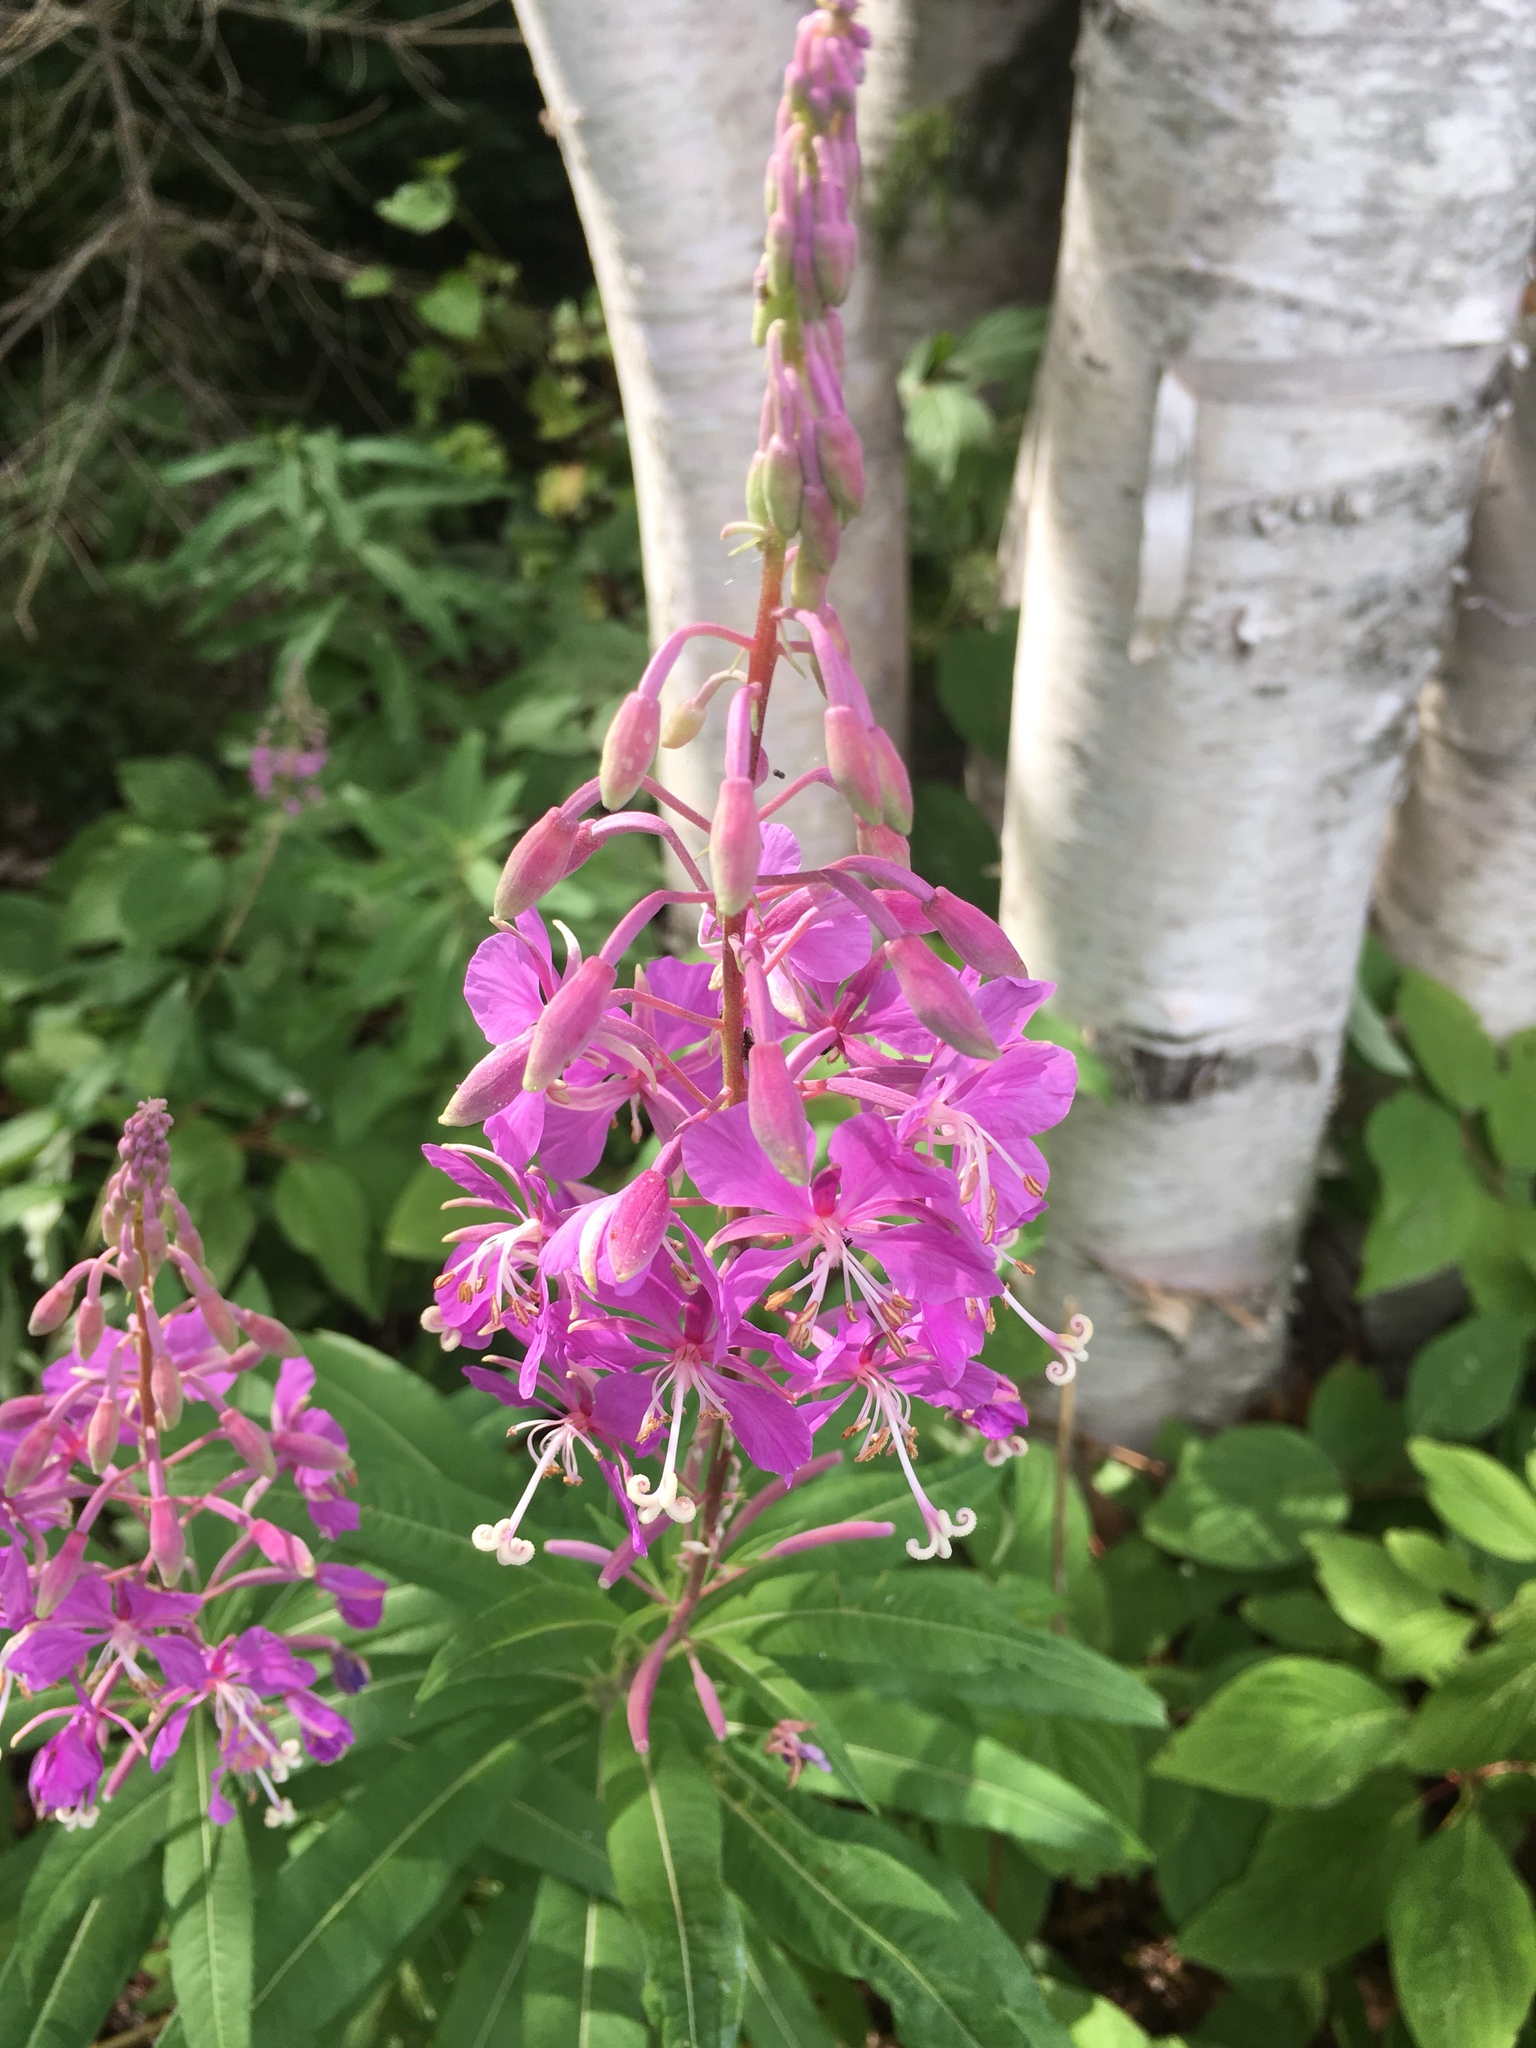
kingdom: Plantae
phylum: Tracheophyta
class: Magnoliopsida
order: Myrtales
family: Onagraceae
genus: Chamaenerion
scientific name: Chamaenerion angustifolium
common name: Fireweed
